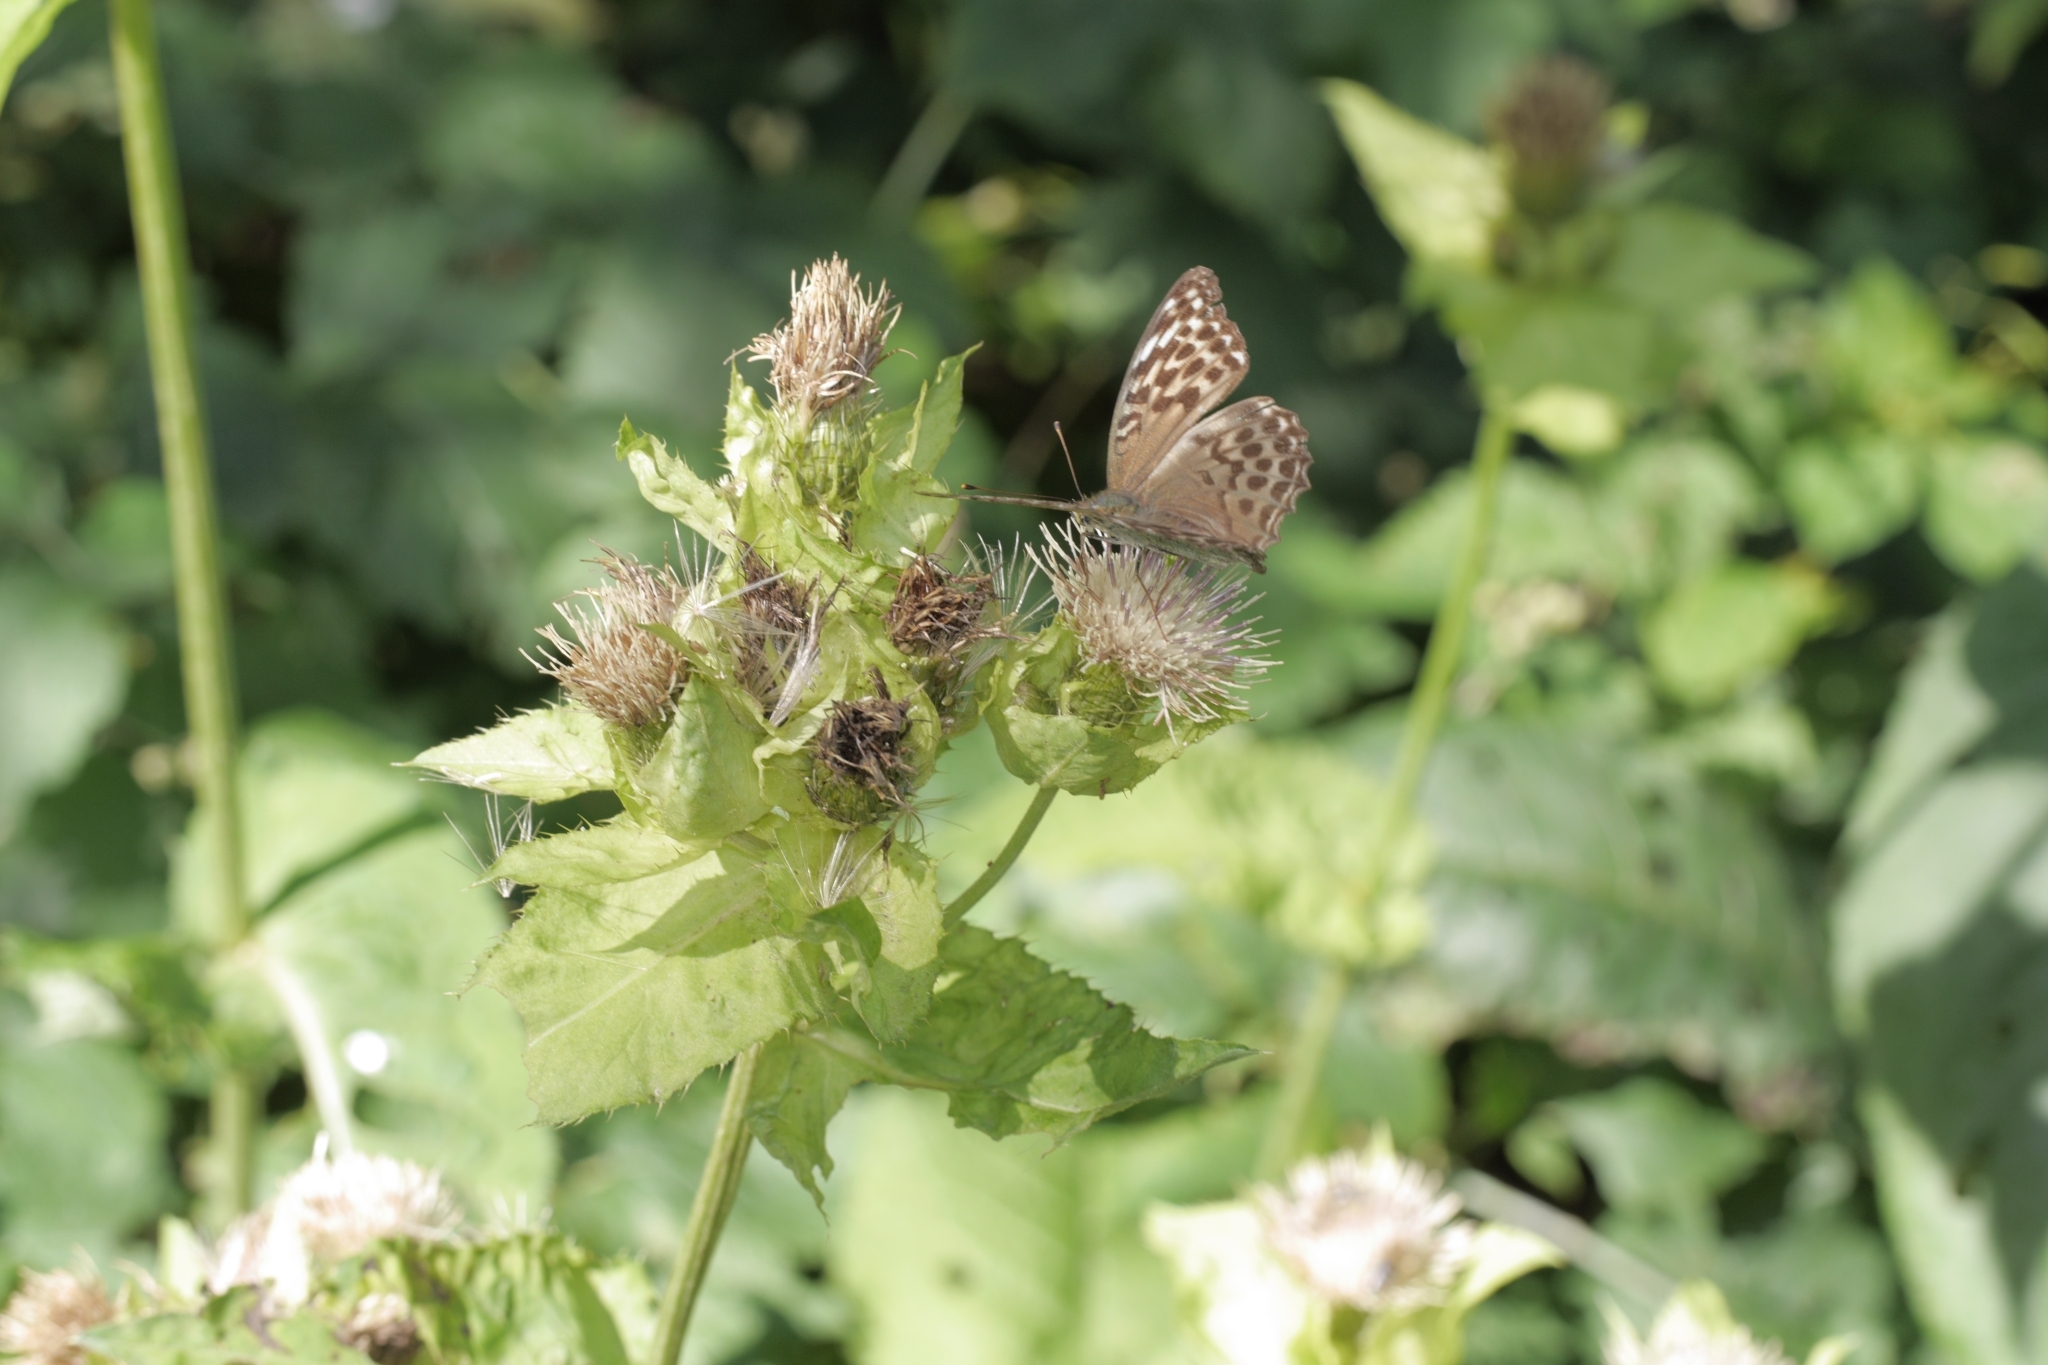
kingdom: Animalia
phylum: Arthropoda
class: Insecta
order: Lepidoptera
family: Nymphalidae
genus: Argynnis
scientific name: Argynnis paphia
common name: Silver-washed fritillary
